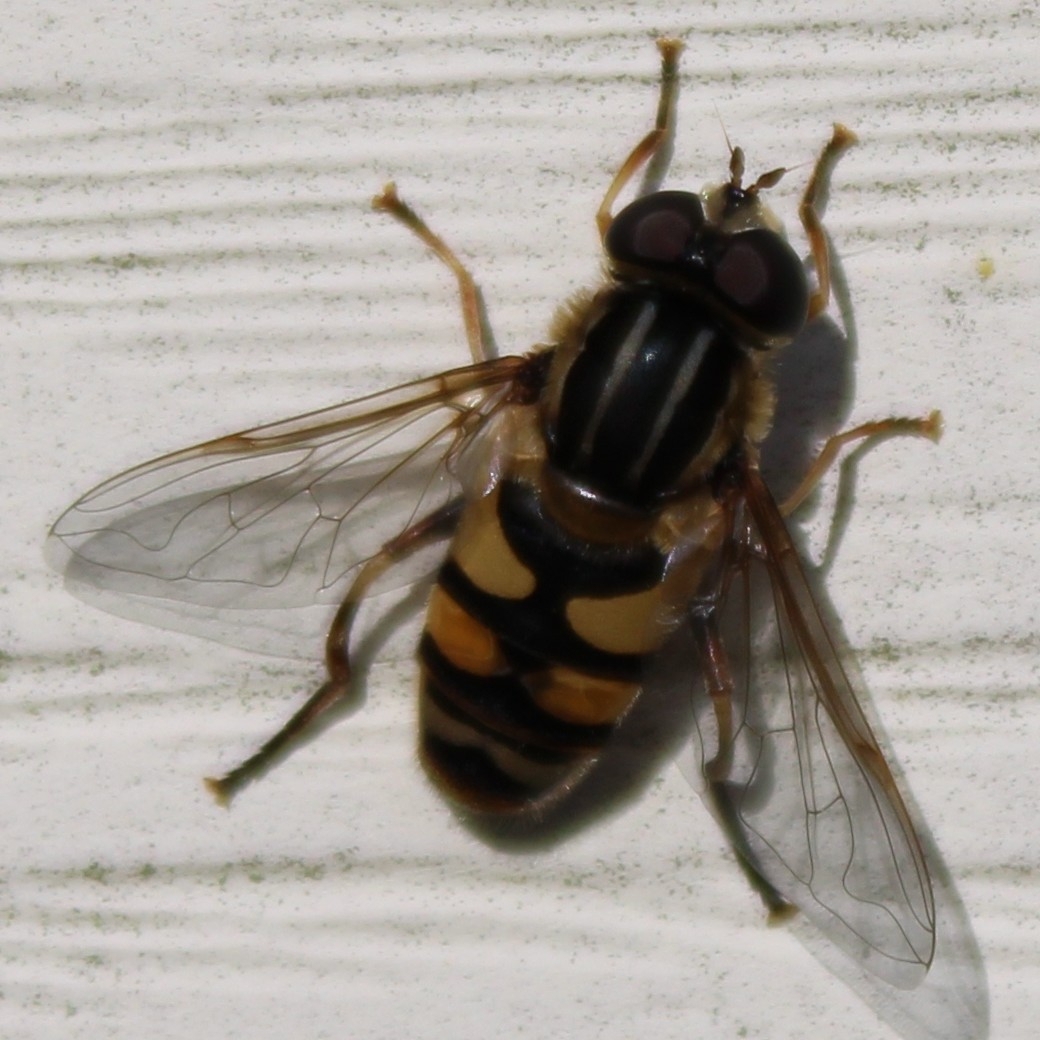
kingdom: Animalia
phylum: Arthropoda
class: Insecta
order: Diptera
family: Syrphidae
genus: Helophilus
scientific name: Helophilus fasciatus
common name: Narrow-headed marsh fly
